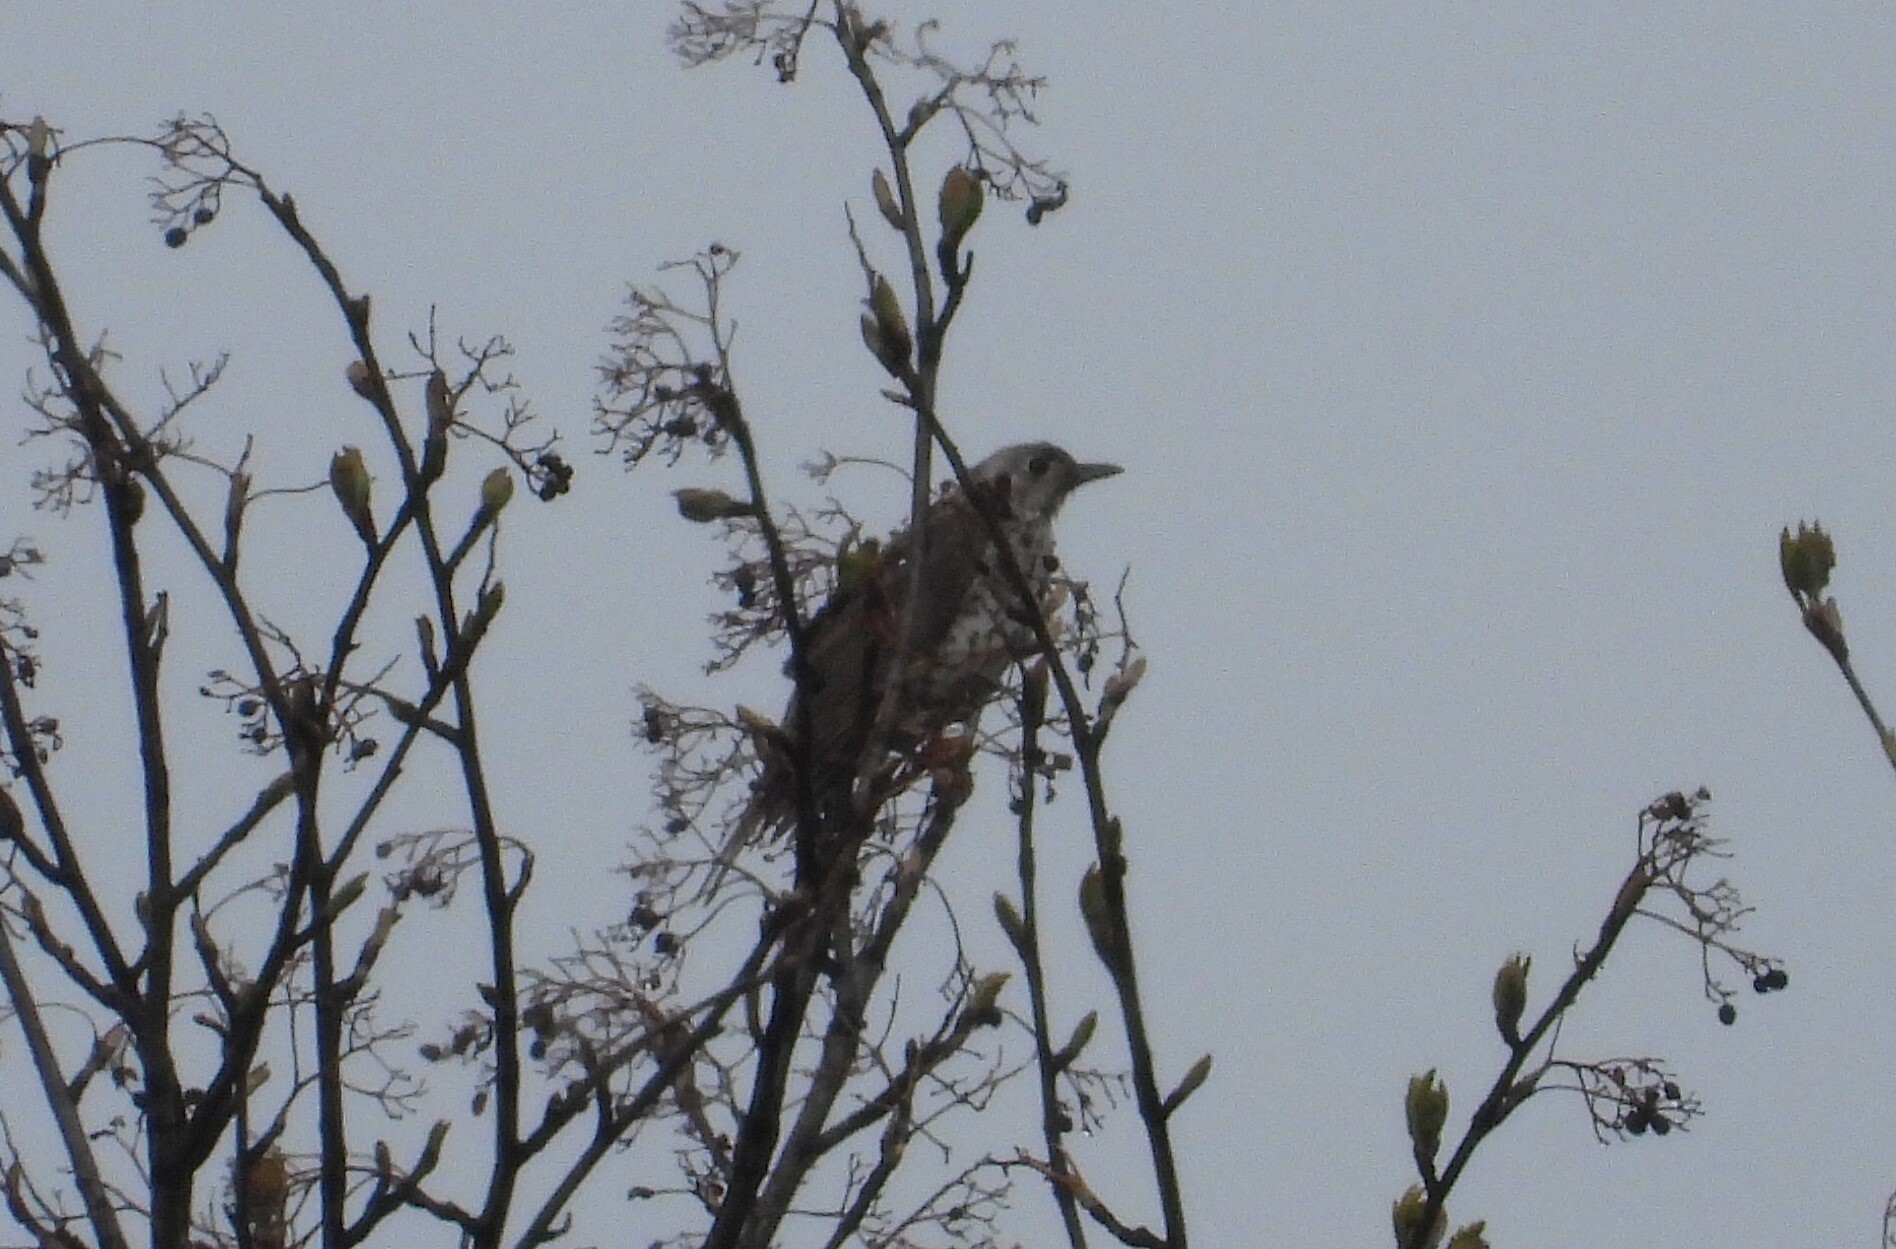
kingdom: Animalia
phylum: Chordata
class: Aves
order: Passeriformes
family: Turdidae
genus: Turdus
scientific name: Turdus viscivorus
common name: Mistle thrush
